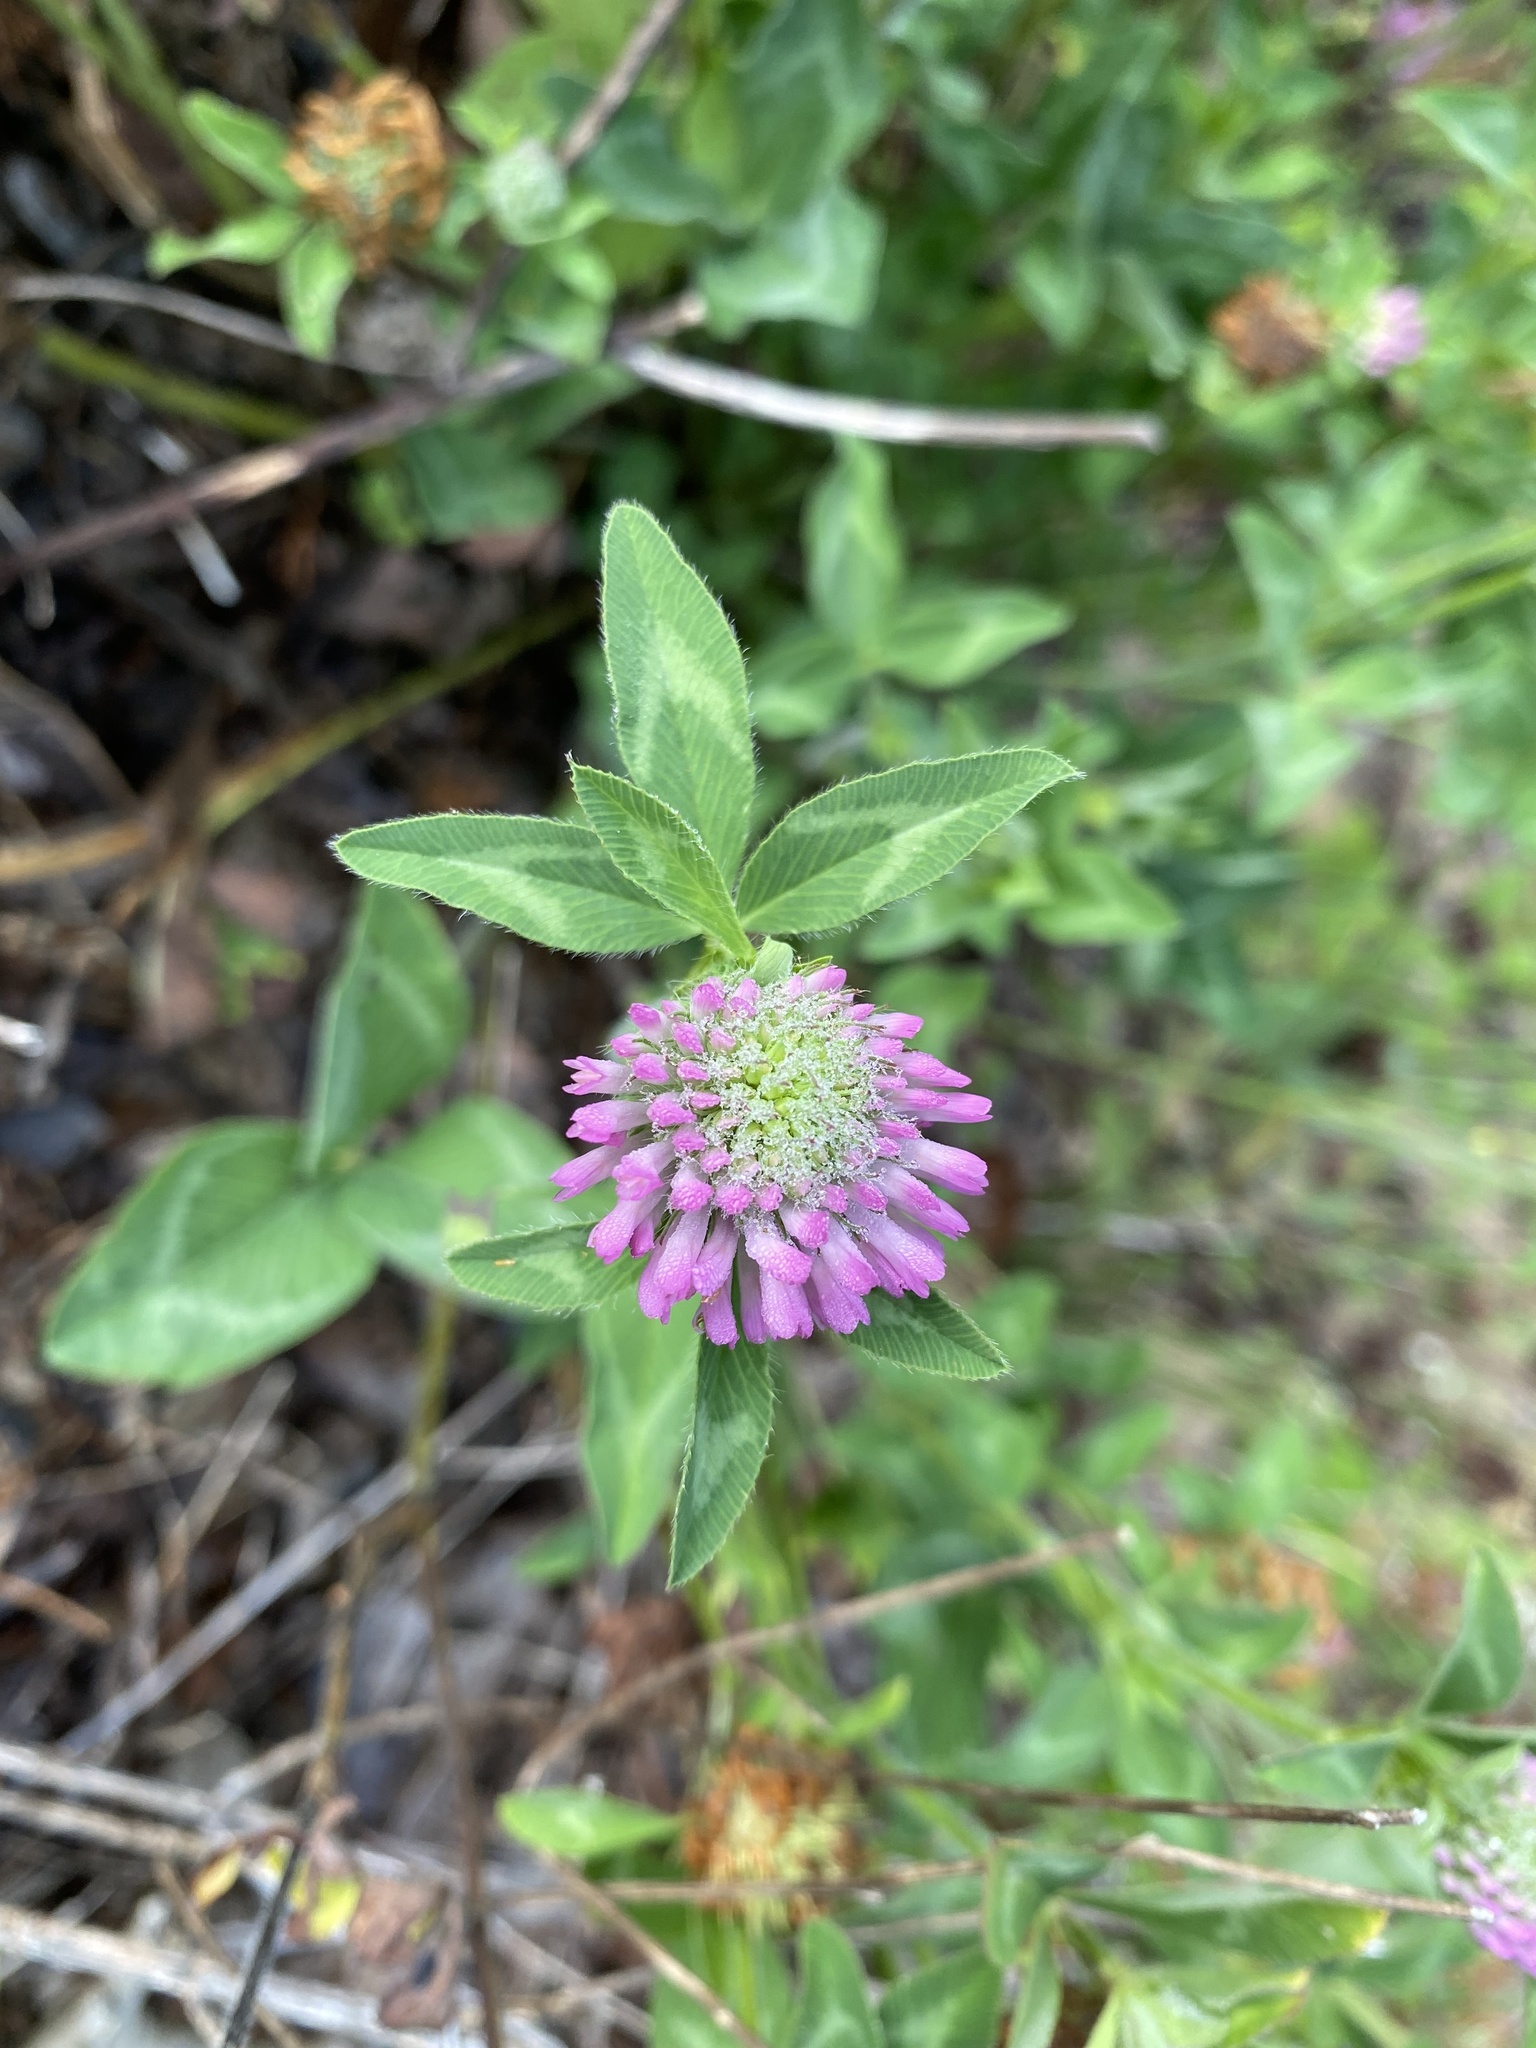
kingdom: Plantae
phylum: Tracheophyta
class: Magnoliopsida
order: Fabales
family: Fabaceae
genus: Trifolium
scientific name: Trifolium pratense
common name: Red clover
